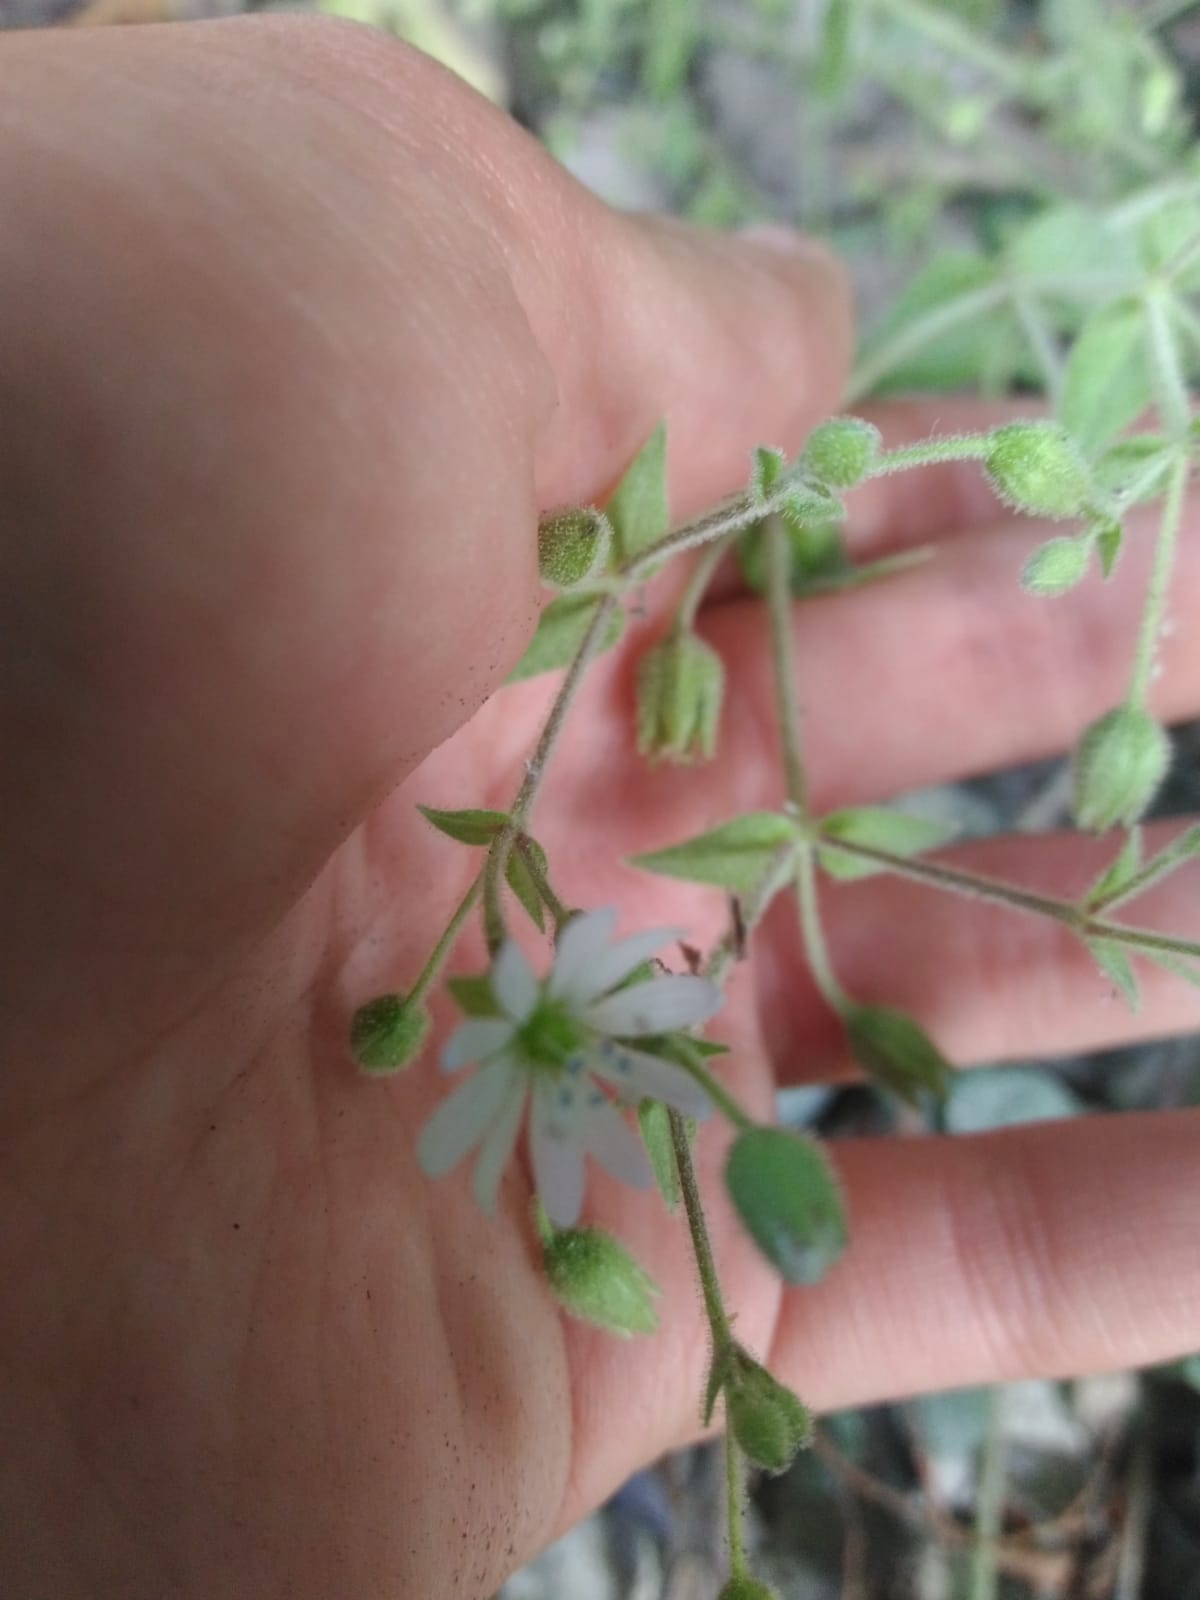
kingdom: Plantae
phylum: Tracheophyta
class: Magnoliopsida
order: Caryophyllales
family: Caryophyllaceae
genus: Stellaria
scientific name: Stellaria aquatica
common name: Water chickweed
